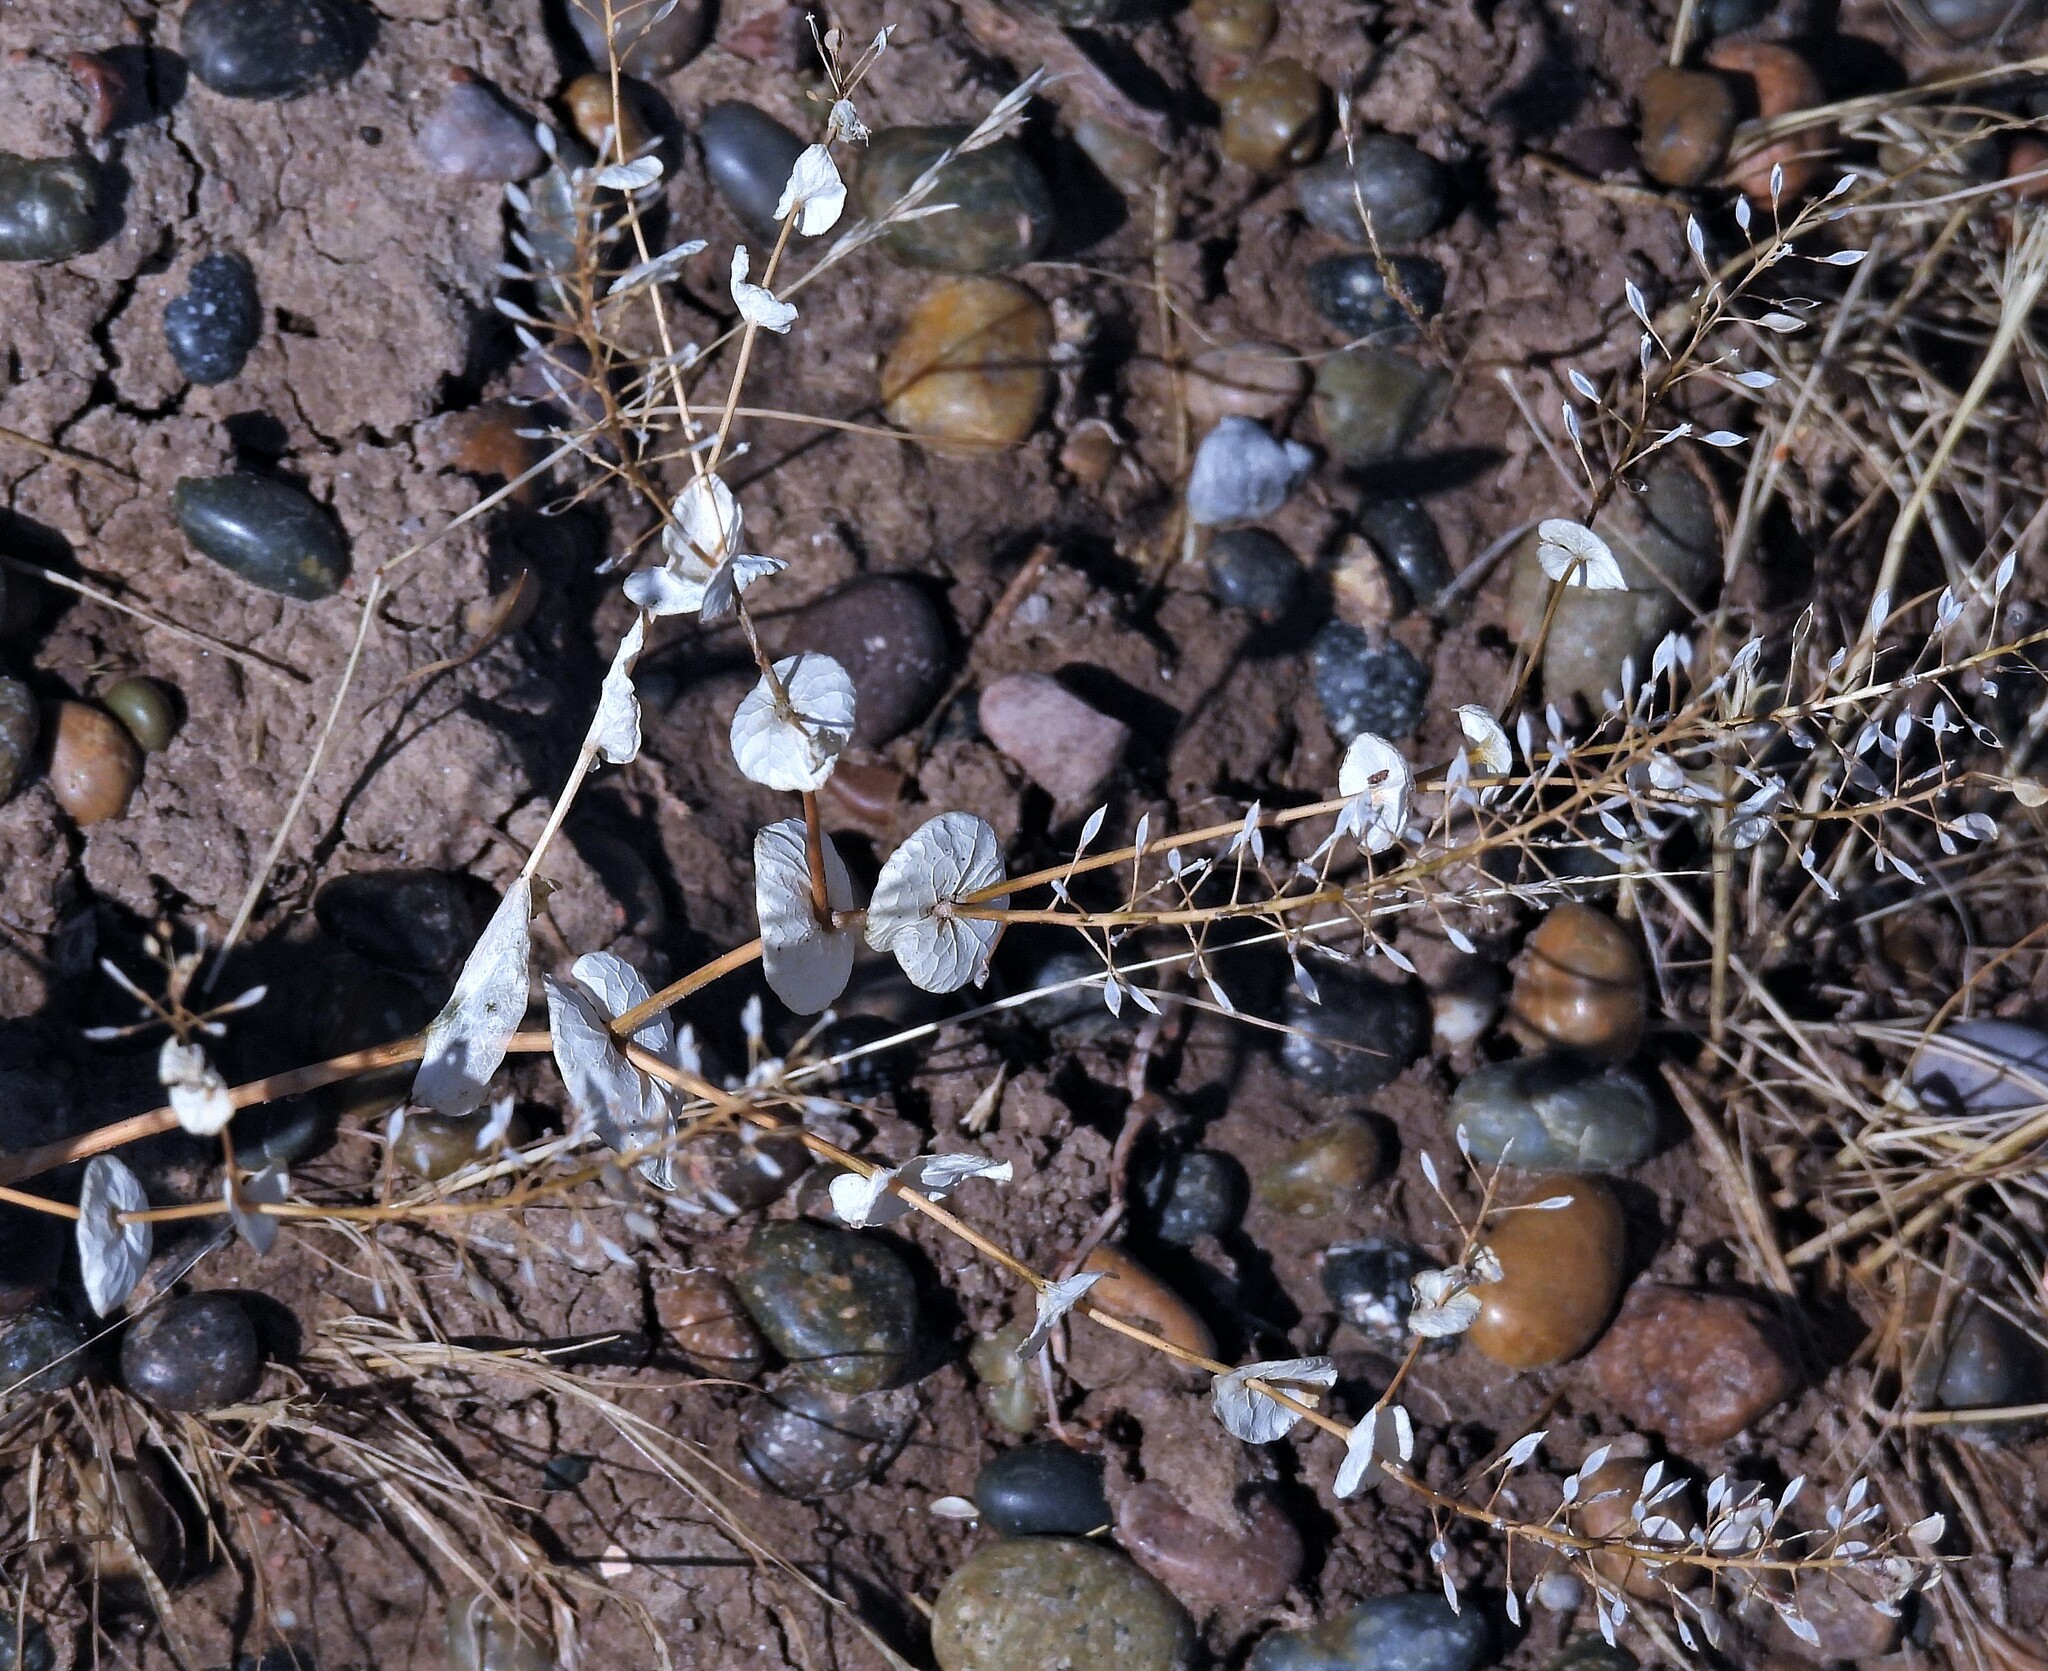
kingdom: Plantae
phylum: Tracheophyta
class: Magnoliopsida
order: Brassicales
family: Brassicaceae
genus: Lepidium
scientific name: Lepidium perfoliatum
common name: Perfoliate pepperwort
